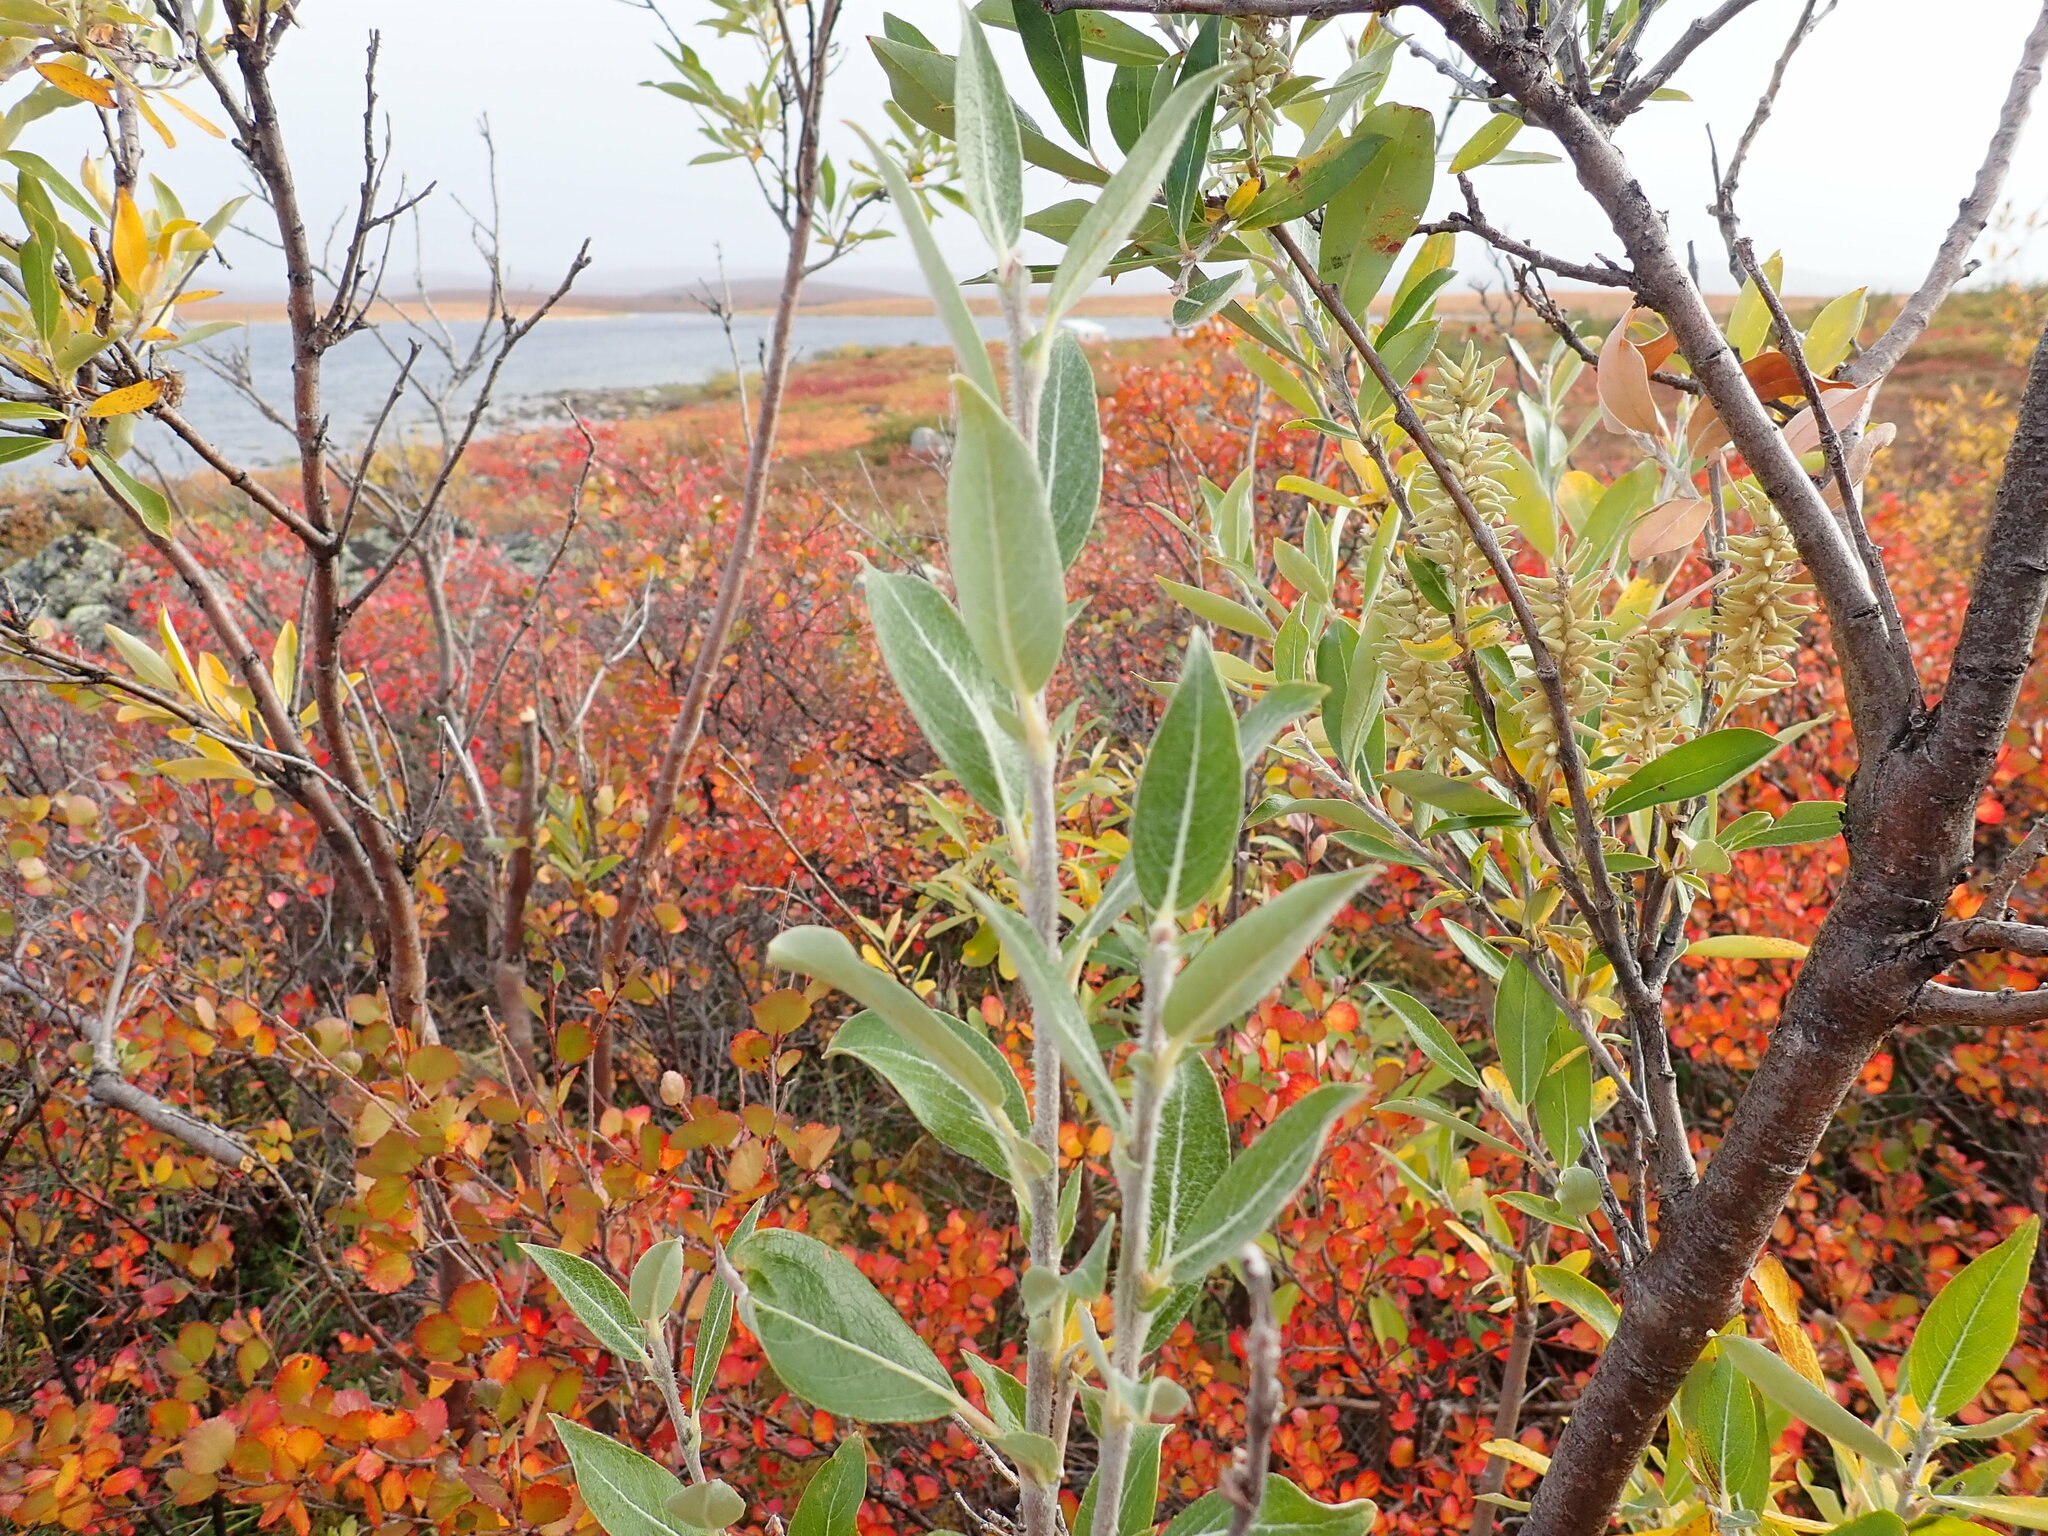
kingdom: Plantae
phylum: Tracheophyta
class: Magnoliopsida
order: Malpighiales
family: Salicaceae
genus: Salix
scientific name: Salix glauca
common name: Glaucous willow
